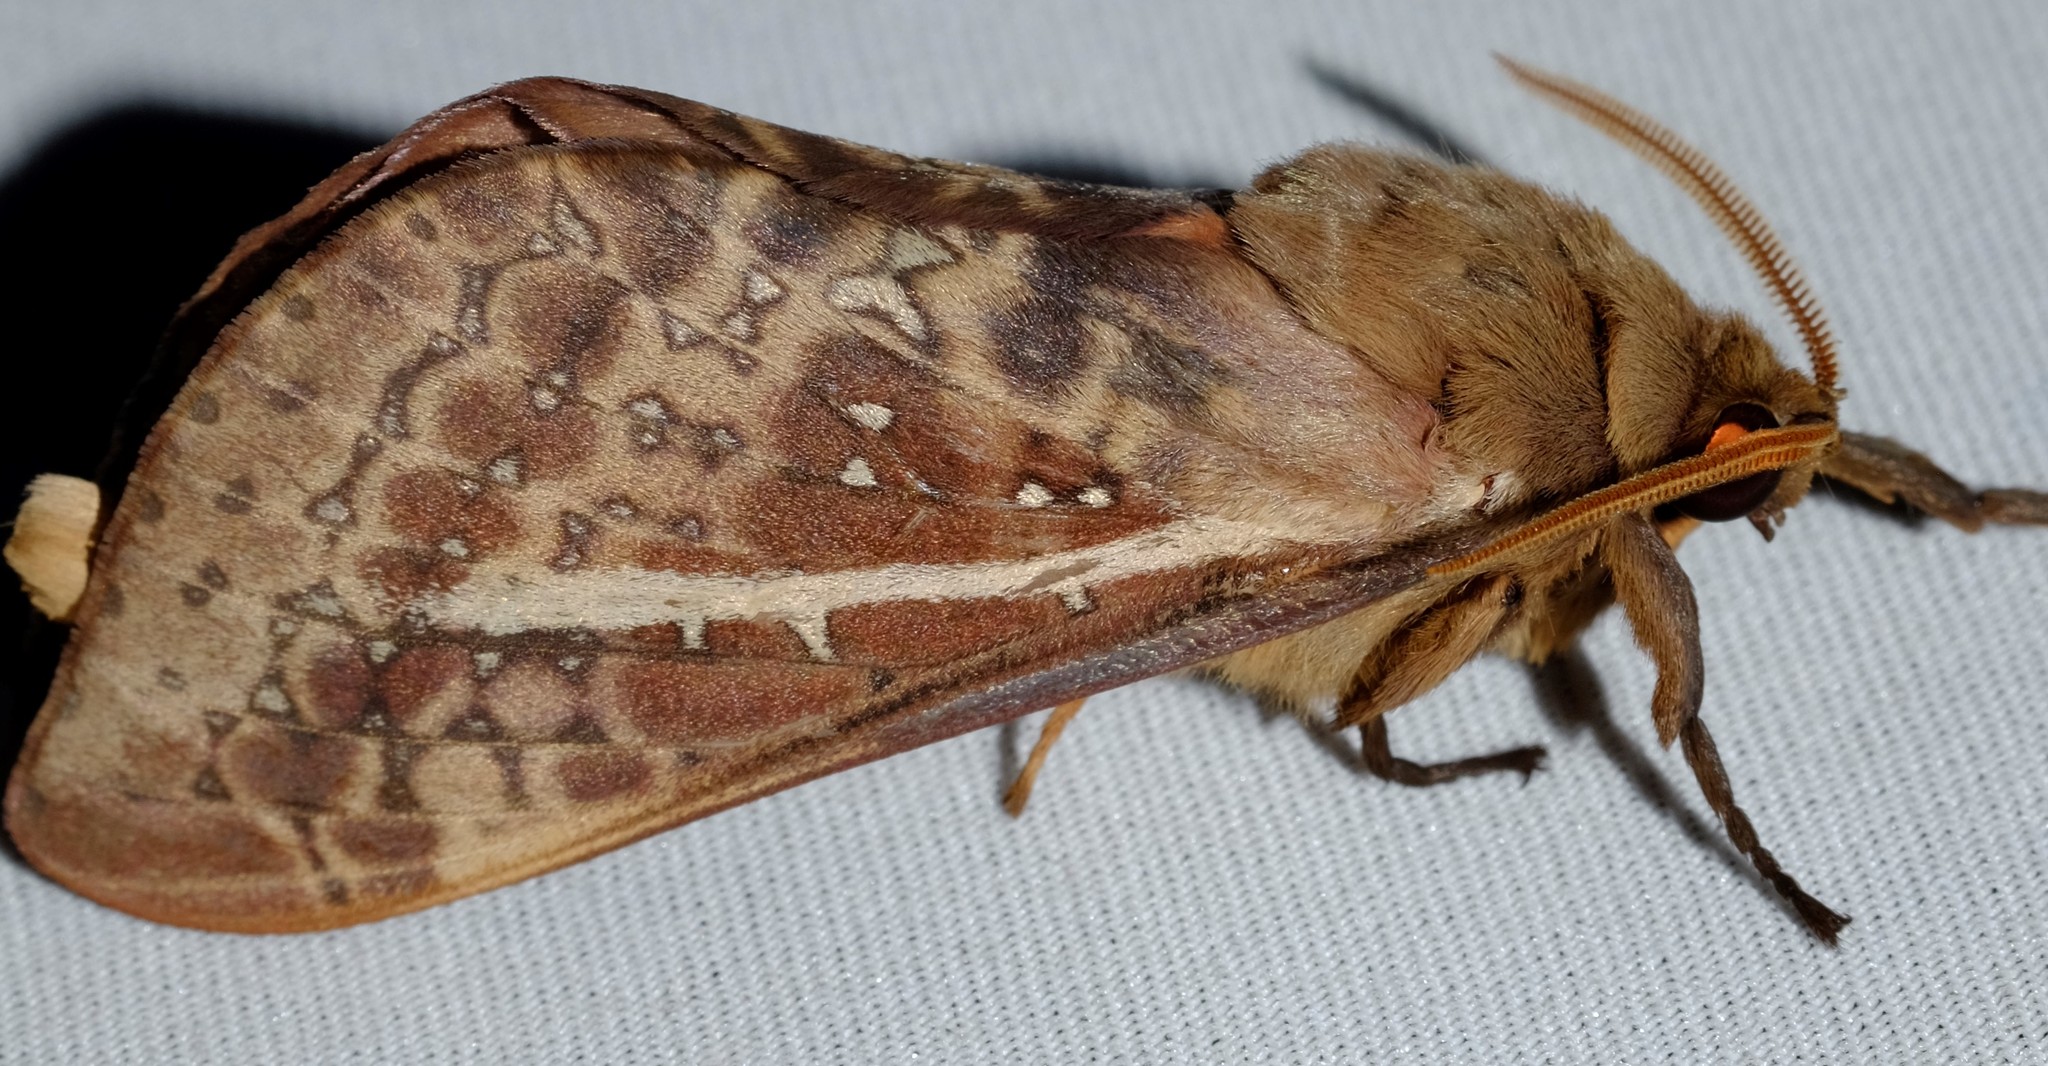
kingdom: Animalia
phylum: Arthropoda
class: Insecta
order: Lepidoptera
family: Hepialidae
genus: Oxycanus
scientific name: Oxycanus australis
